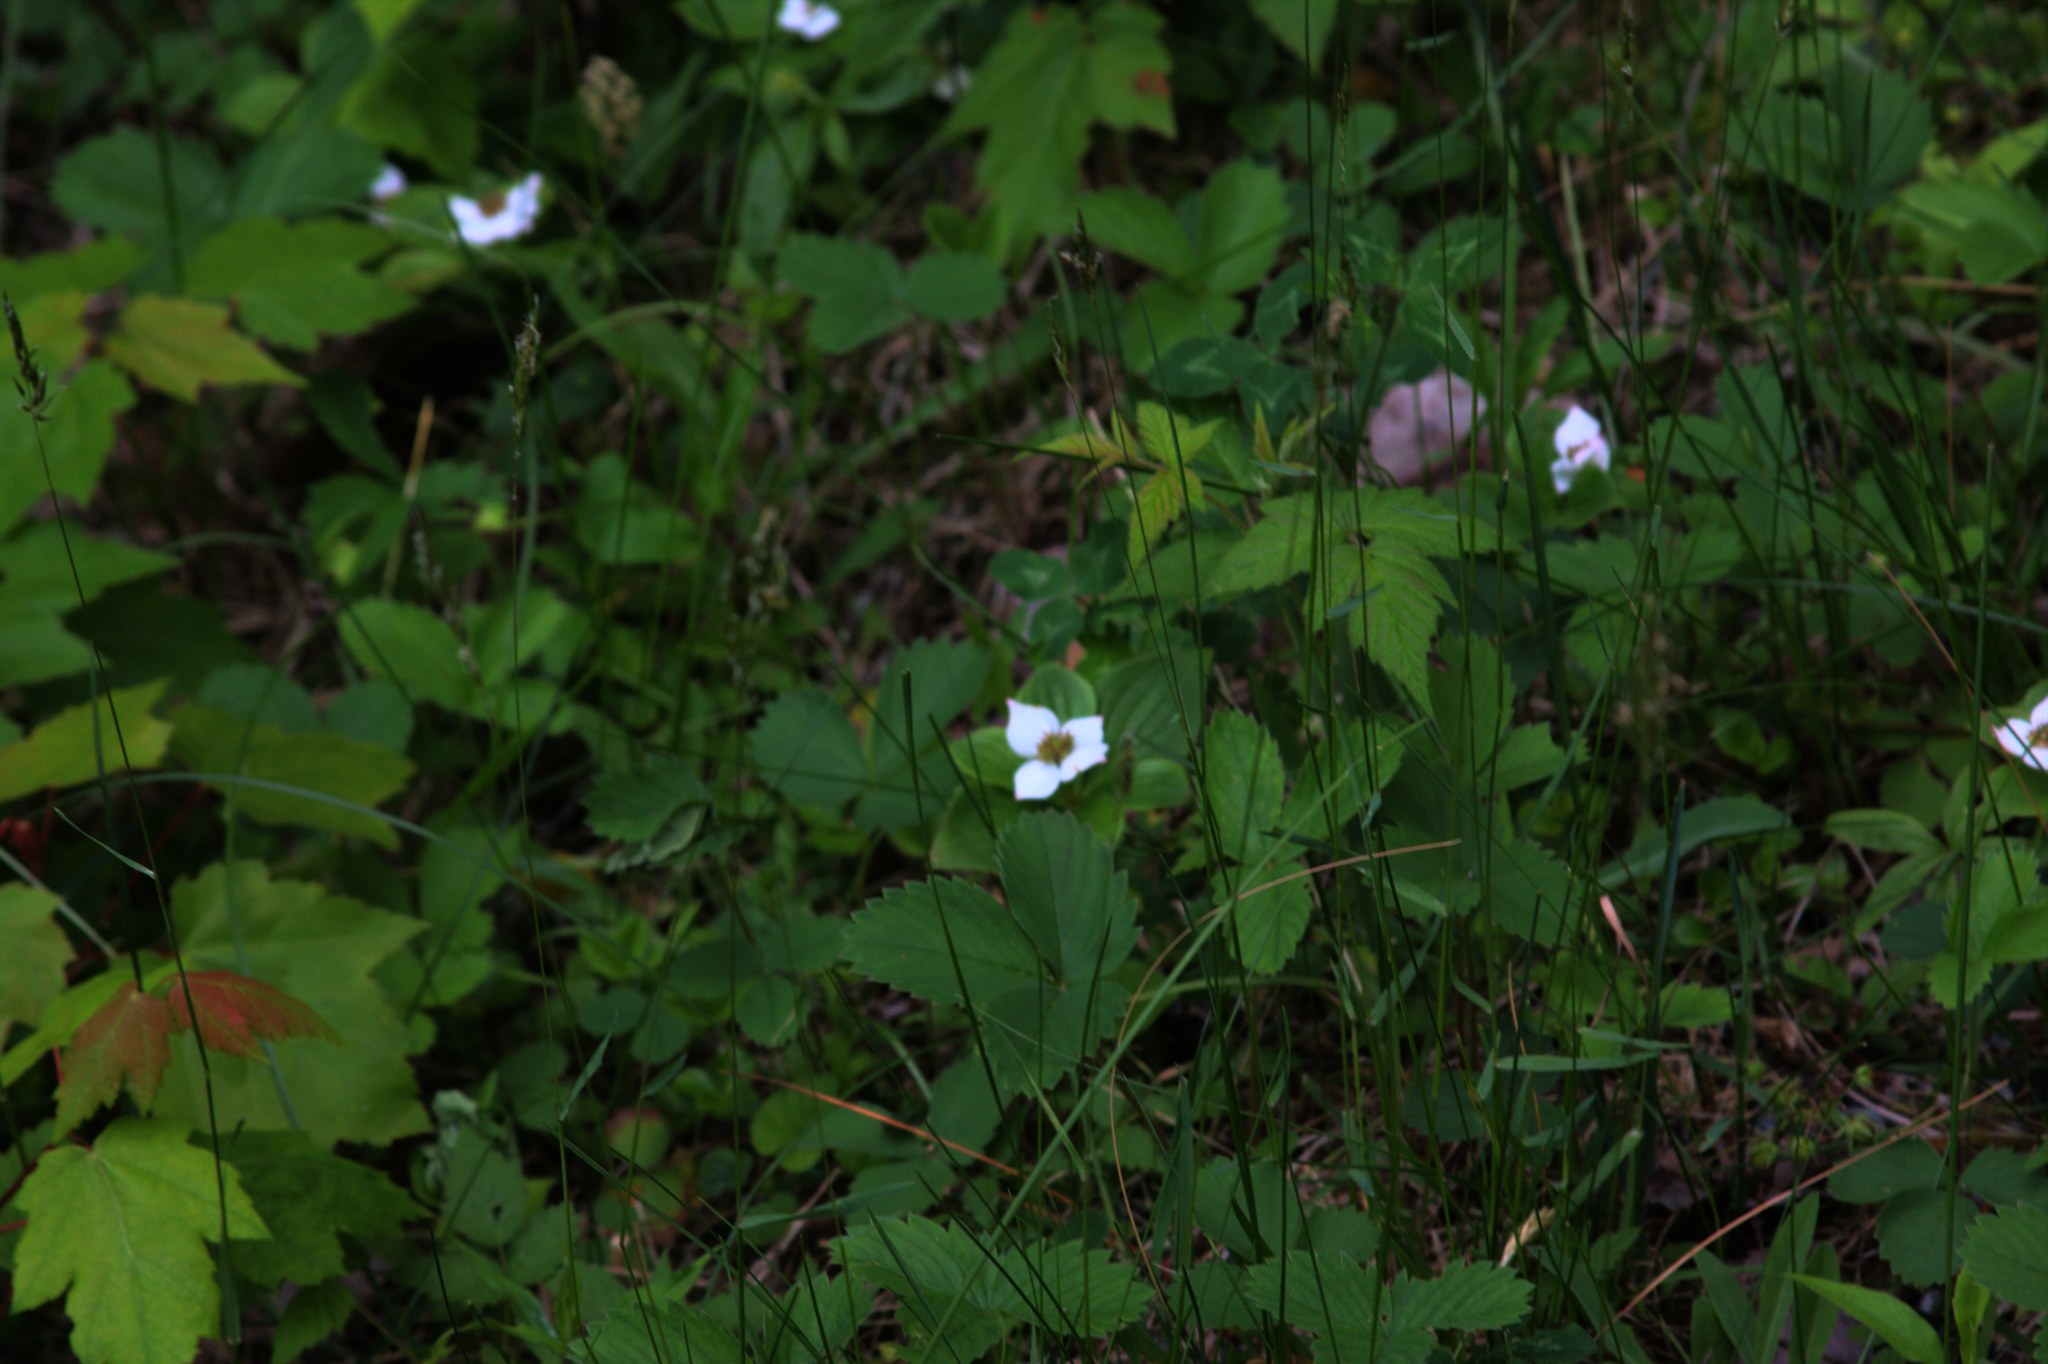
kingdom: Plantae
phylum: Tracheophyta
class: Magnoliopsida
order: Cornales
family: Cornaceae
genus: Cornus
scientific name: Cornus canadensis
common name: Creeping dogwood
